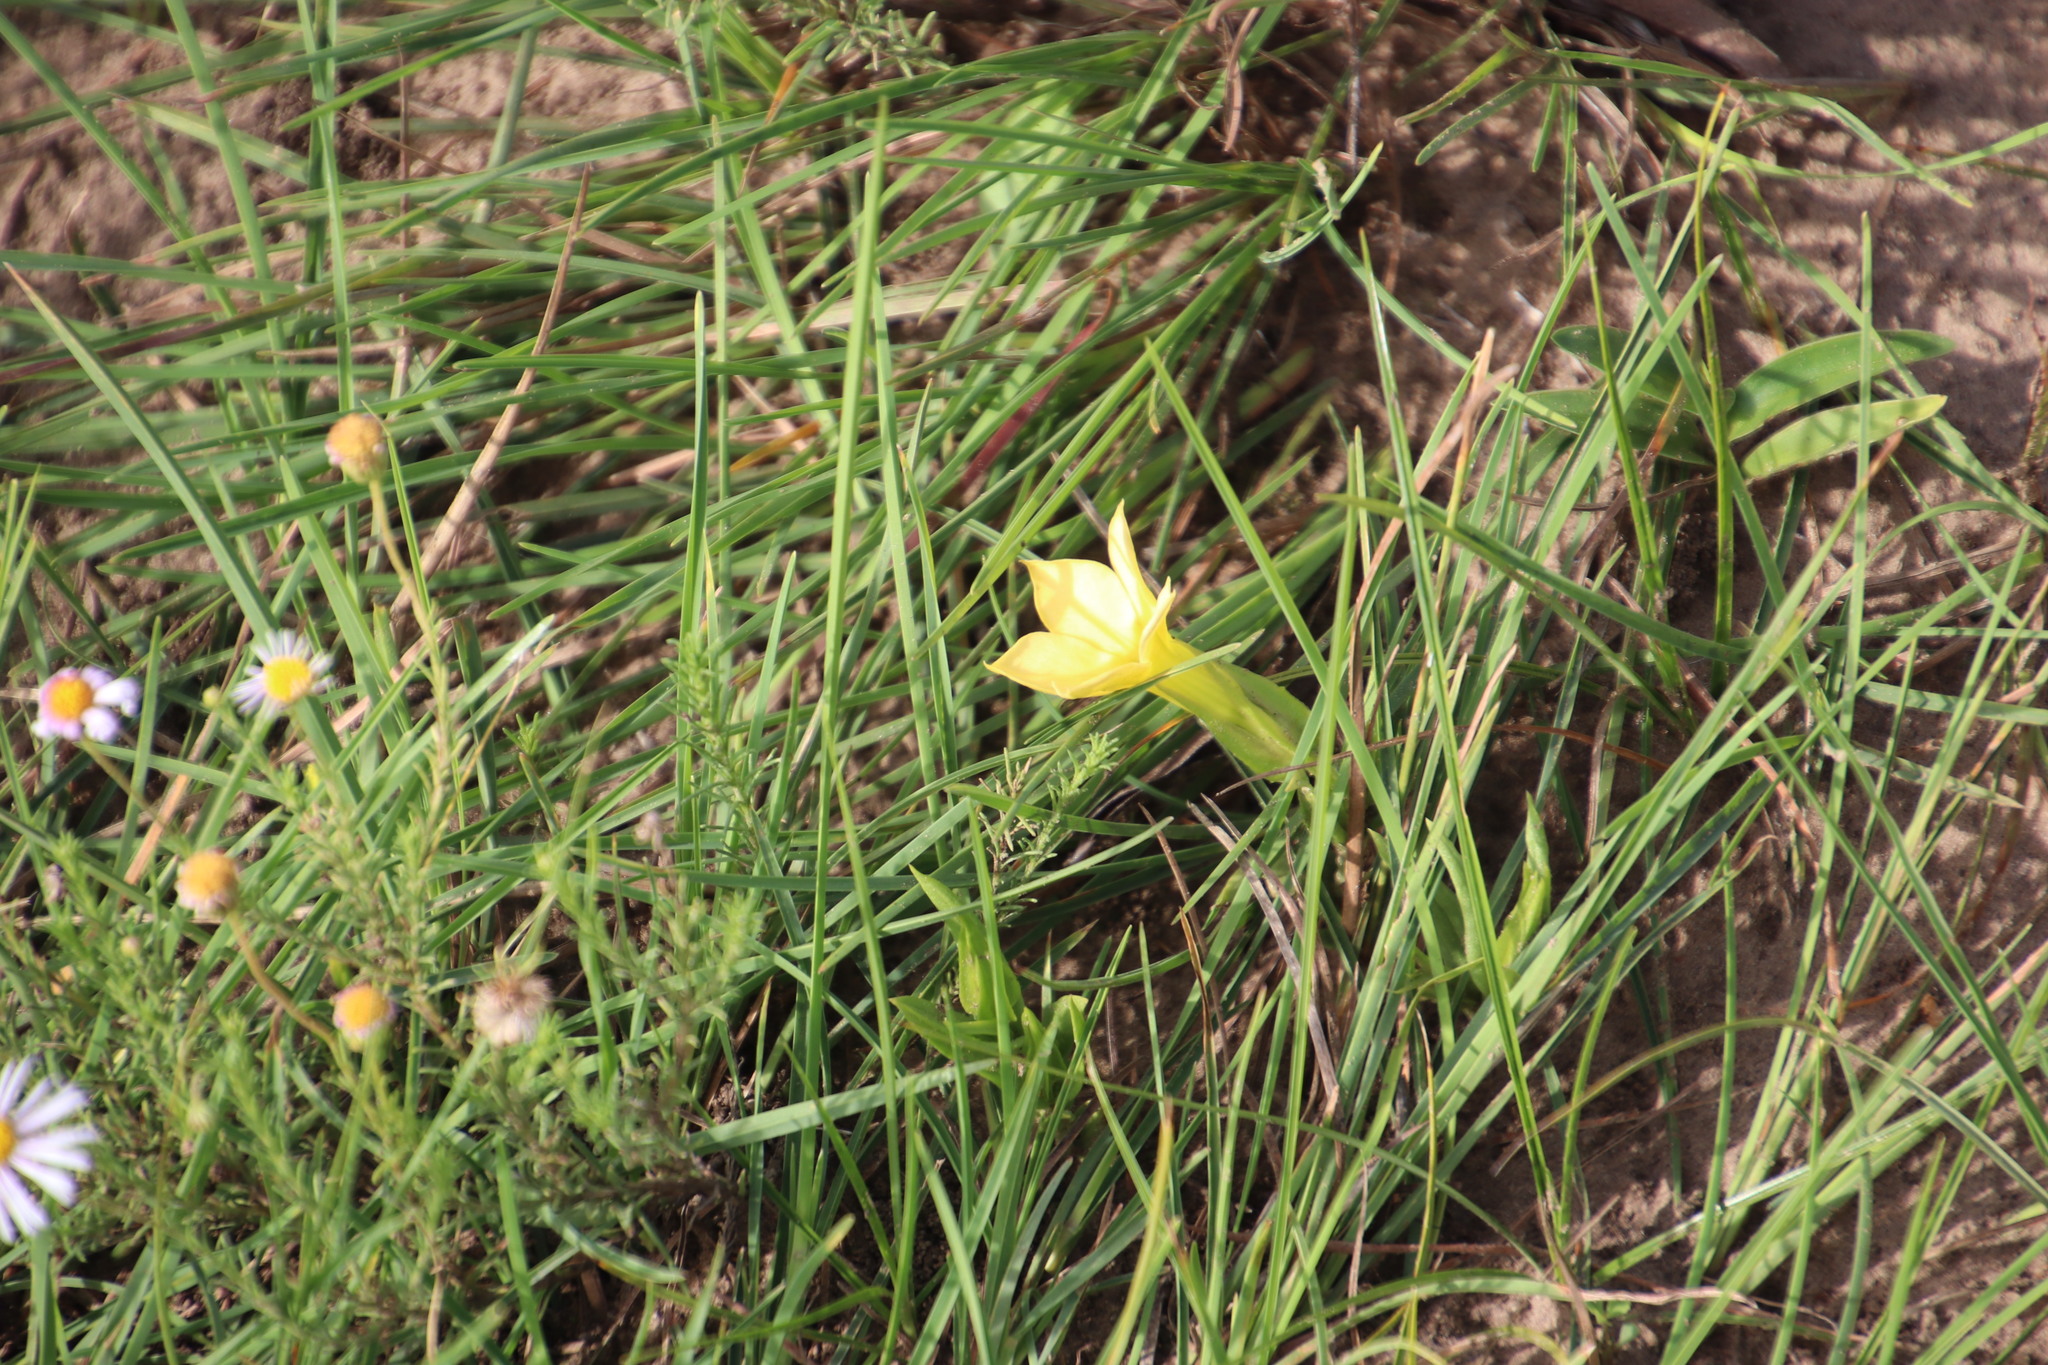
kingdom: Plantae
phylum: Tracheophyta
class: Magnoliopsida
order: Gentianales
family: Gentianaceae
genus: Exochaenium
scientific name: Exochaenium grande
